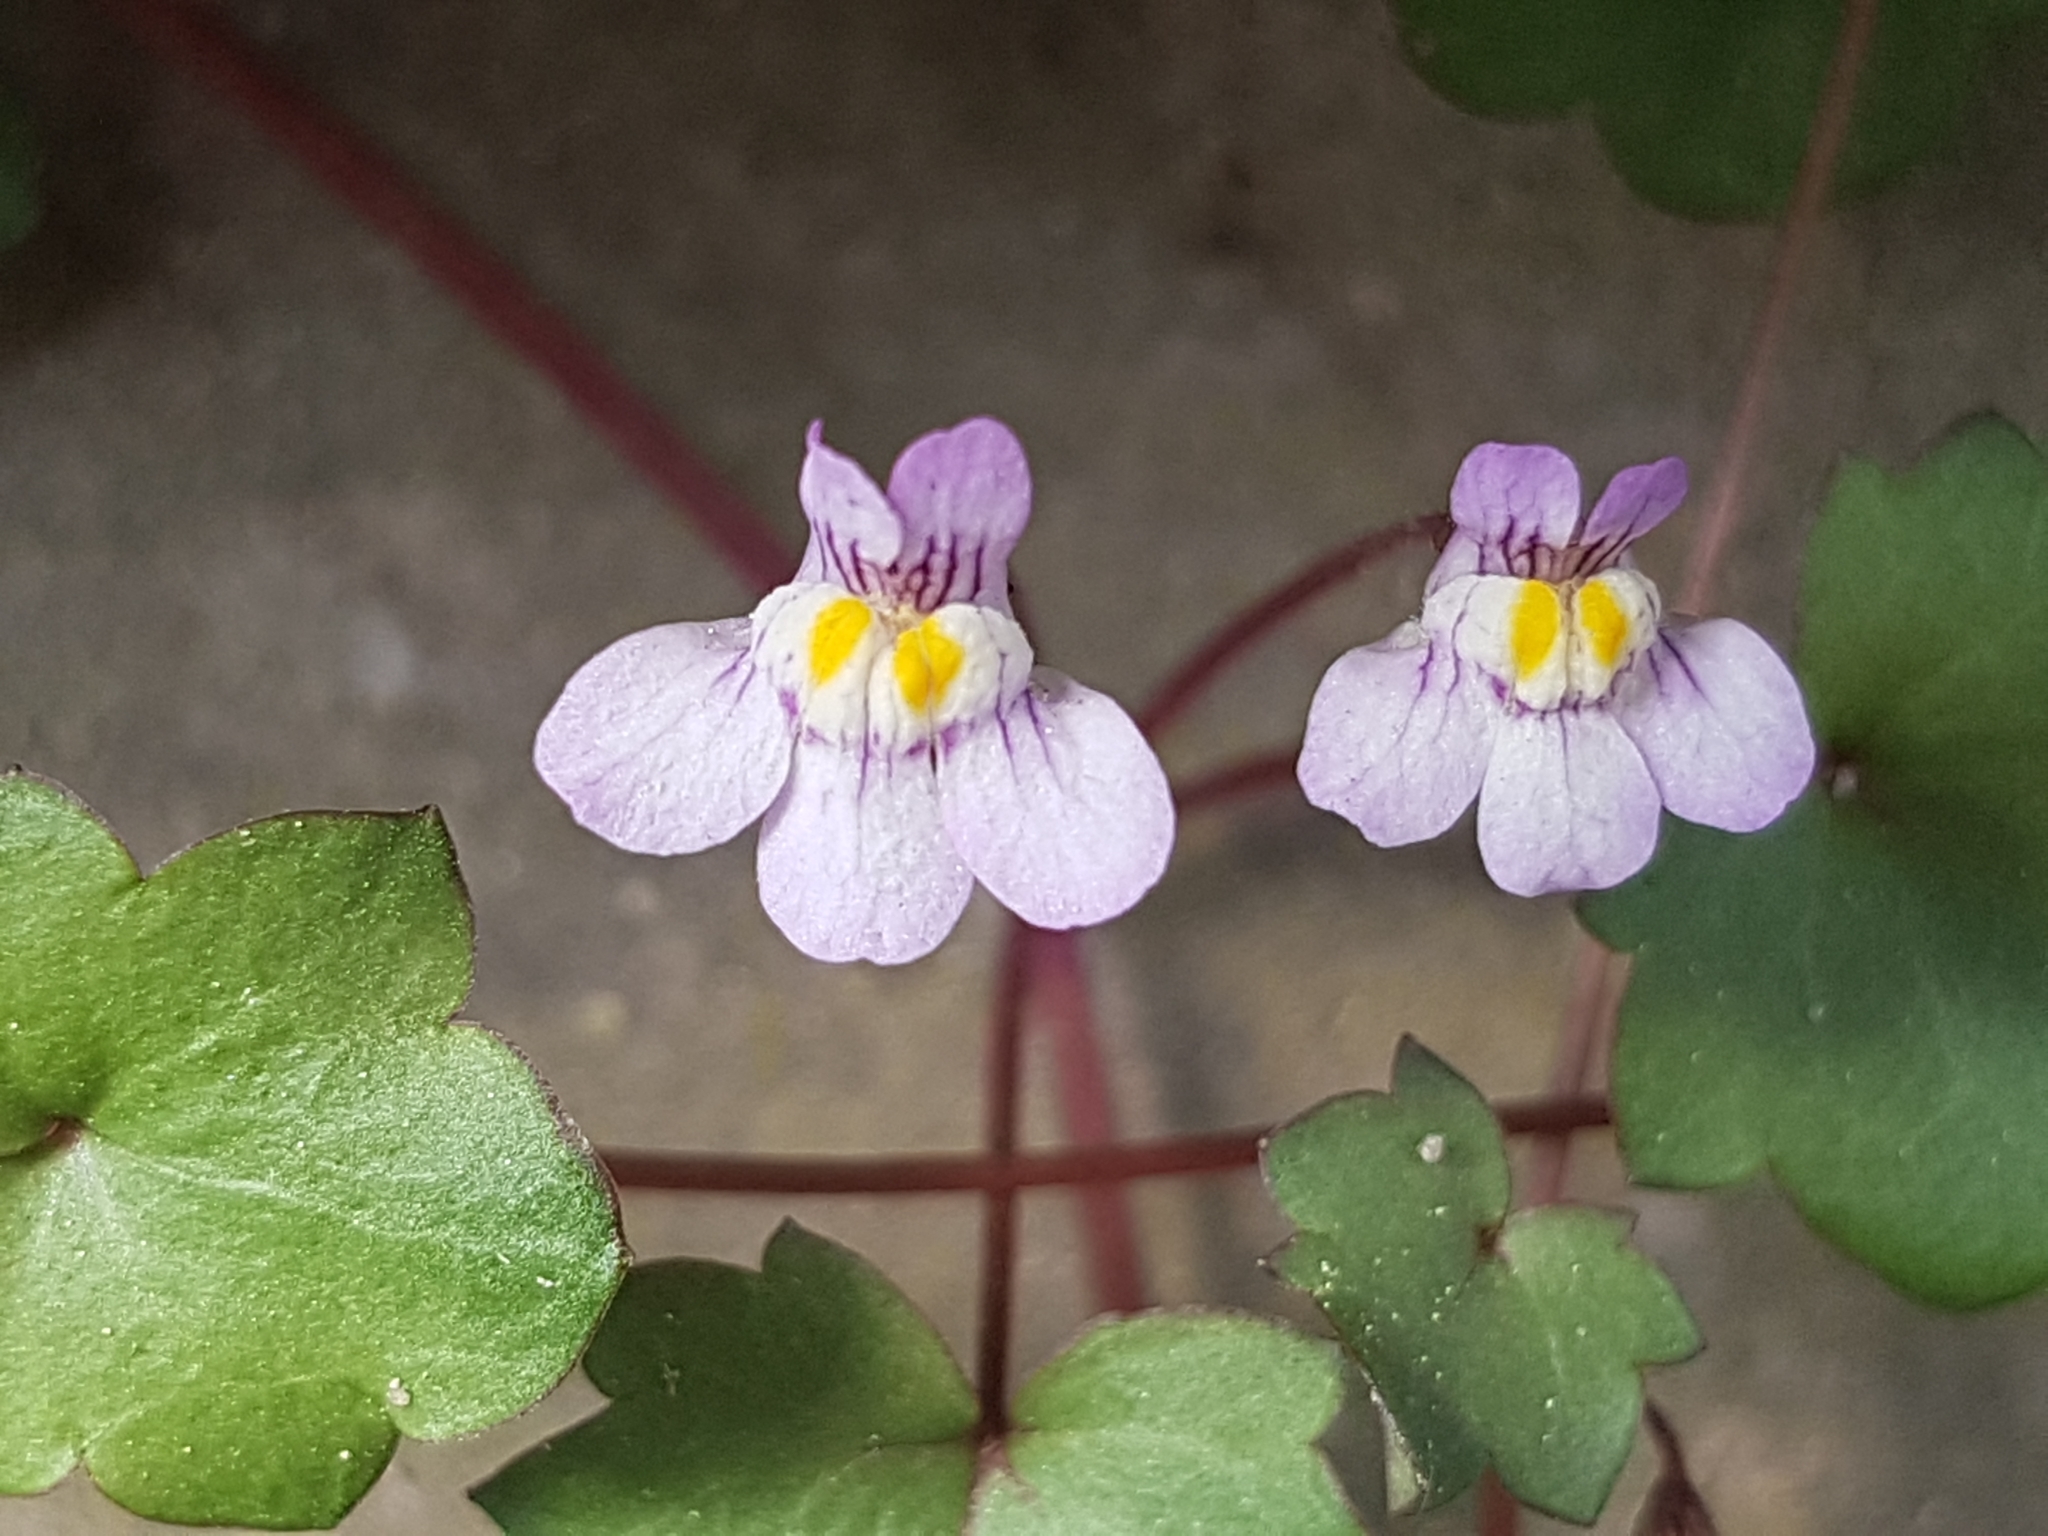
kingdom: Plantae
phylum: Tracheophyta
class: Magnoliopsida
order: Lamiales
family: Plantaginaceae
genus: Cymbalaria
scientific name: Cymbalaria muralis
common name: Ivy-leaved toadflax
